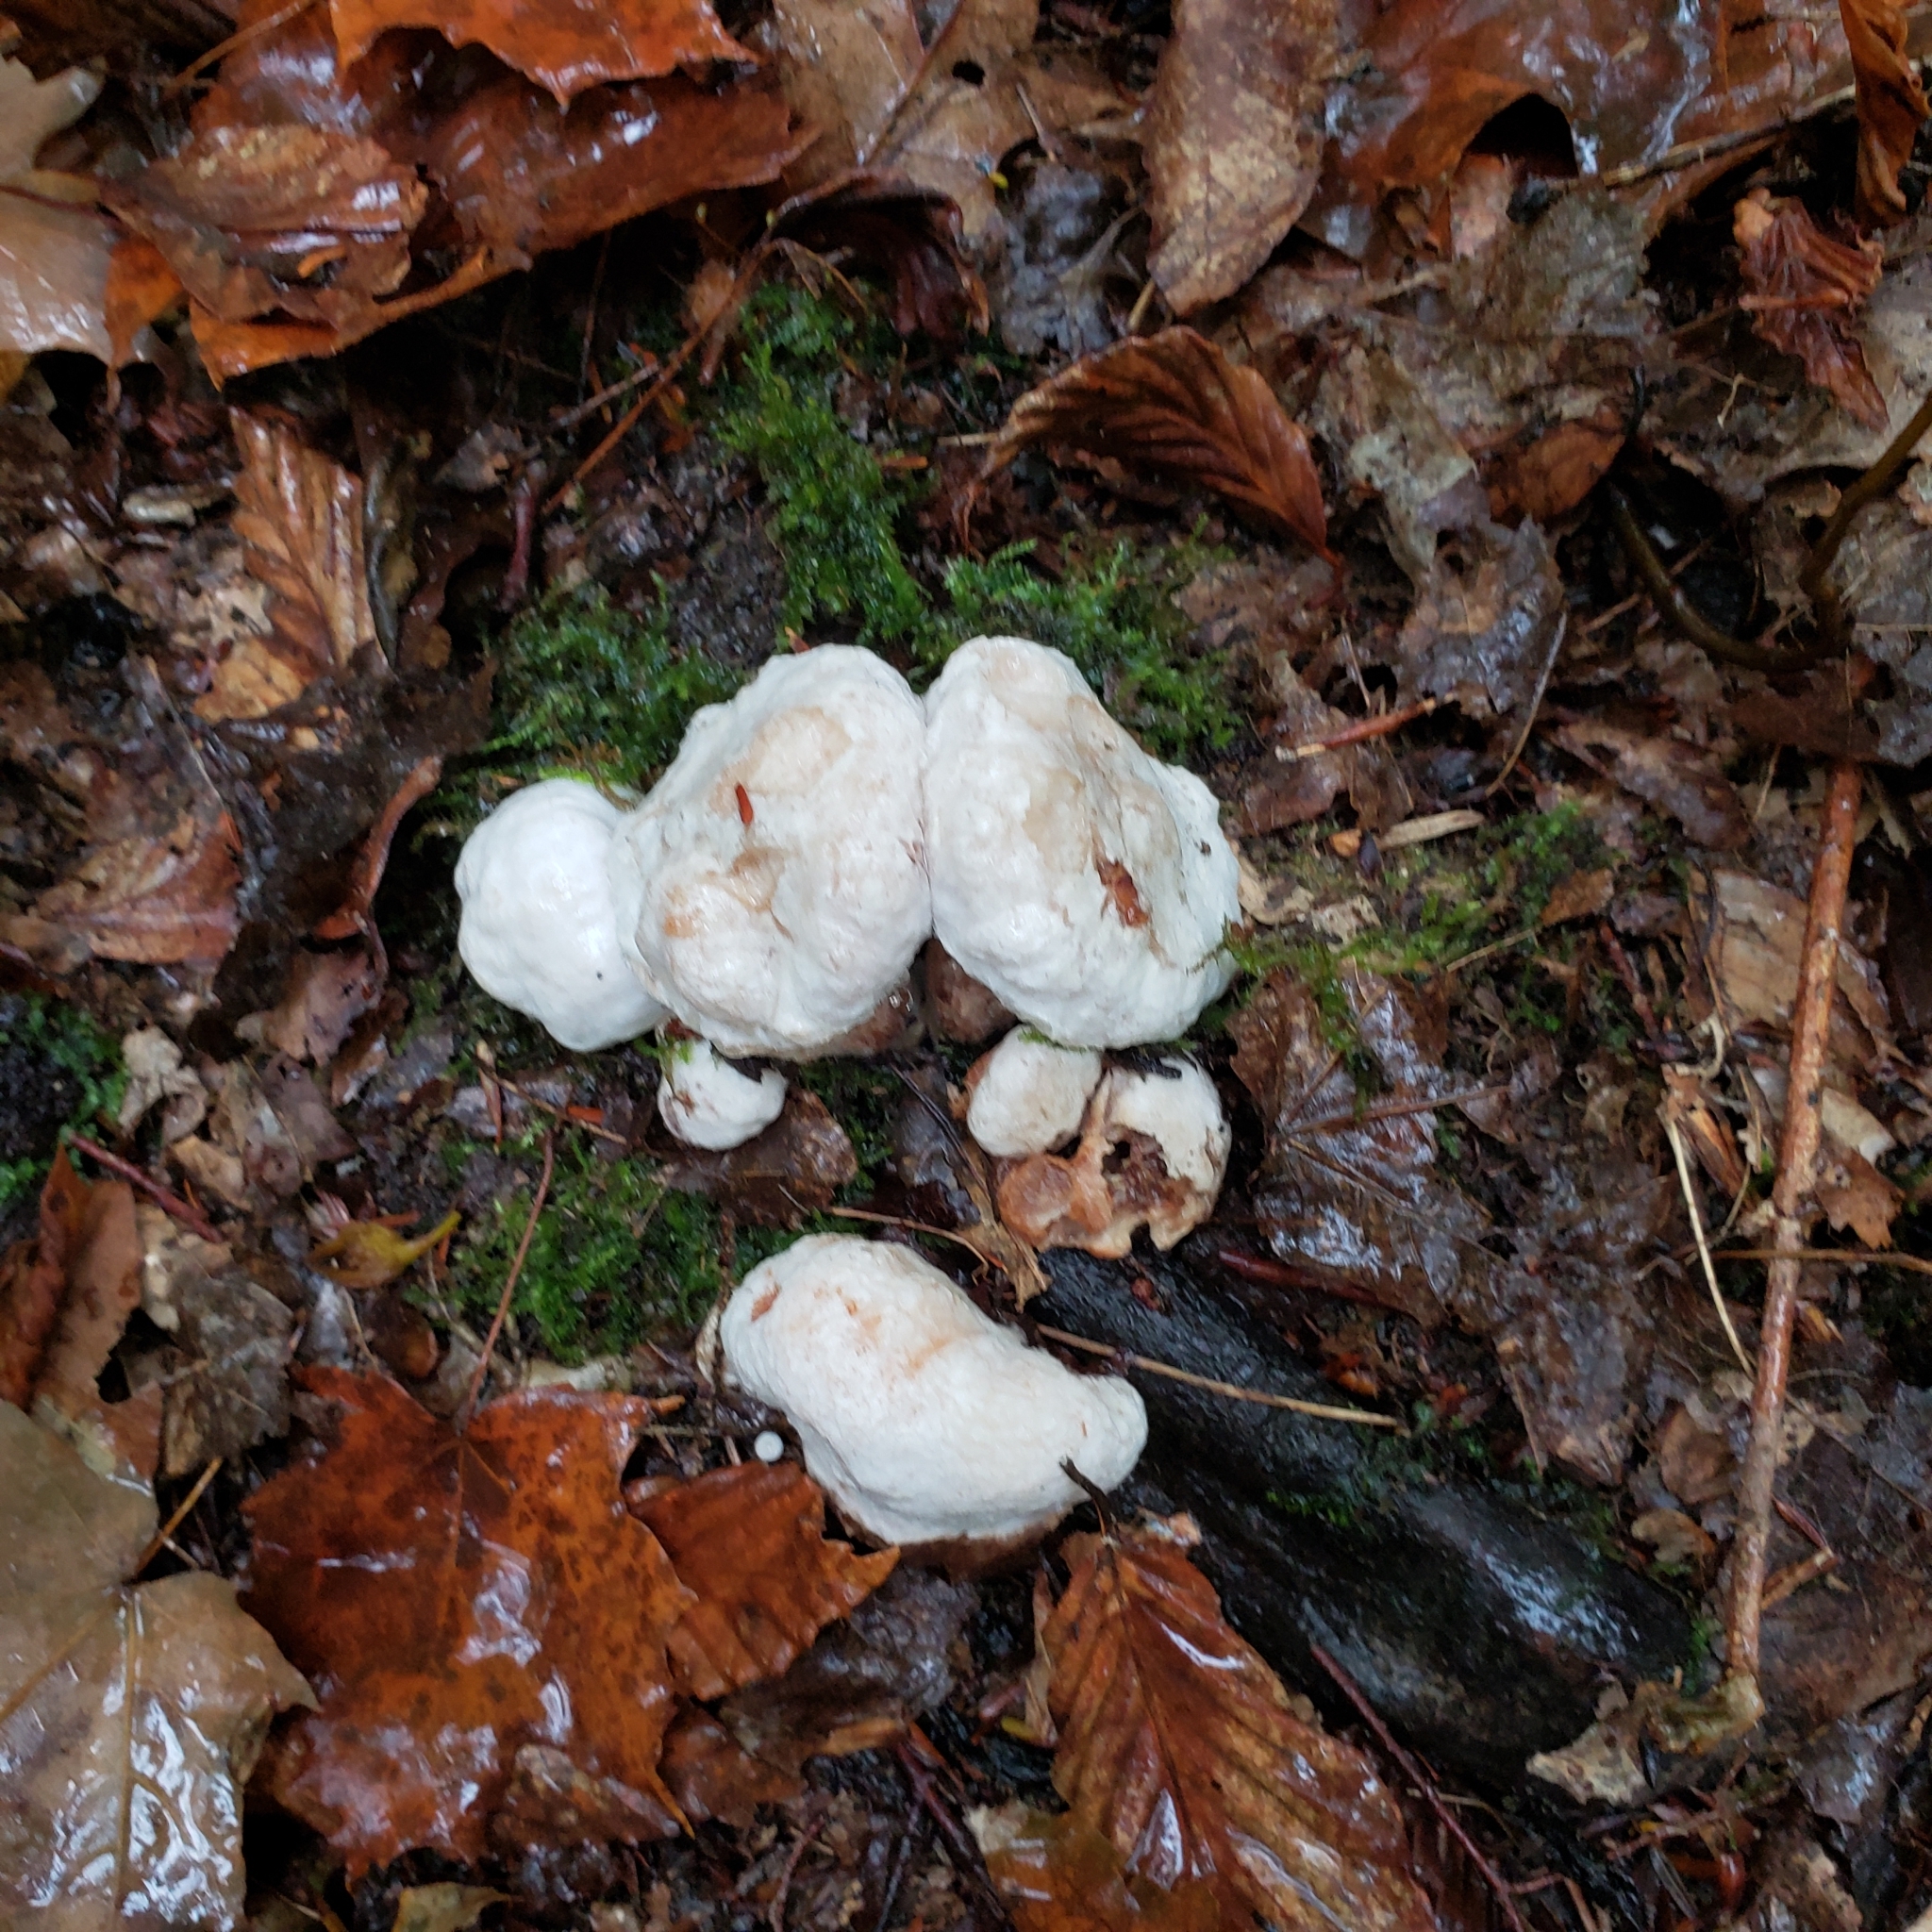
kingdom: Fungi
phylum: Basidiomycota
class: Agaricomycetes
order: Agaricales
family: Entolomataceae
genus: Entoloma
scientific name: Entoloma abortivum
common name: Aborted entoloma
